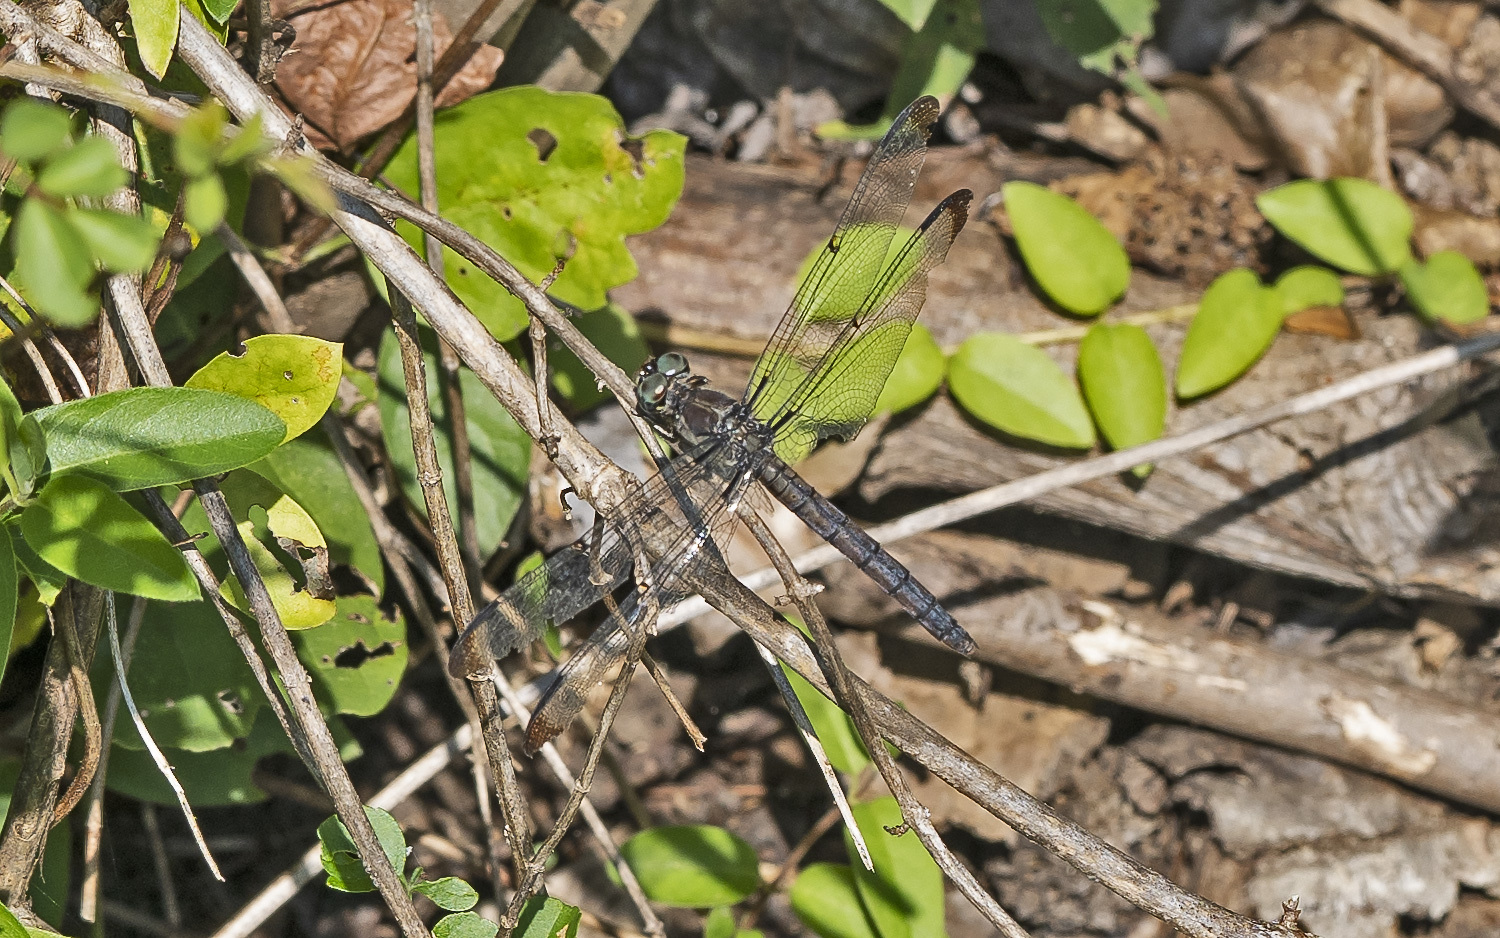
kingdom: Animalia
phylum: Arthropoda
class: Insecta
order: Odonata
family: Libellulidae
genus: Libellula
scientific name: Libellula vibrans
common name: Great blue skimmer
